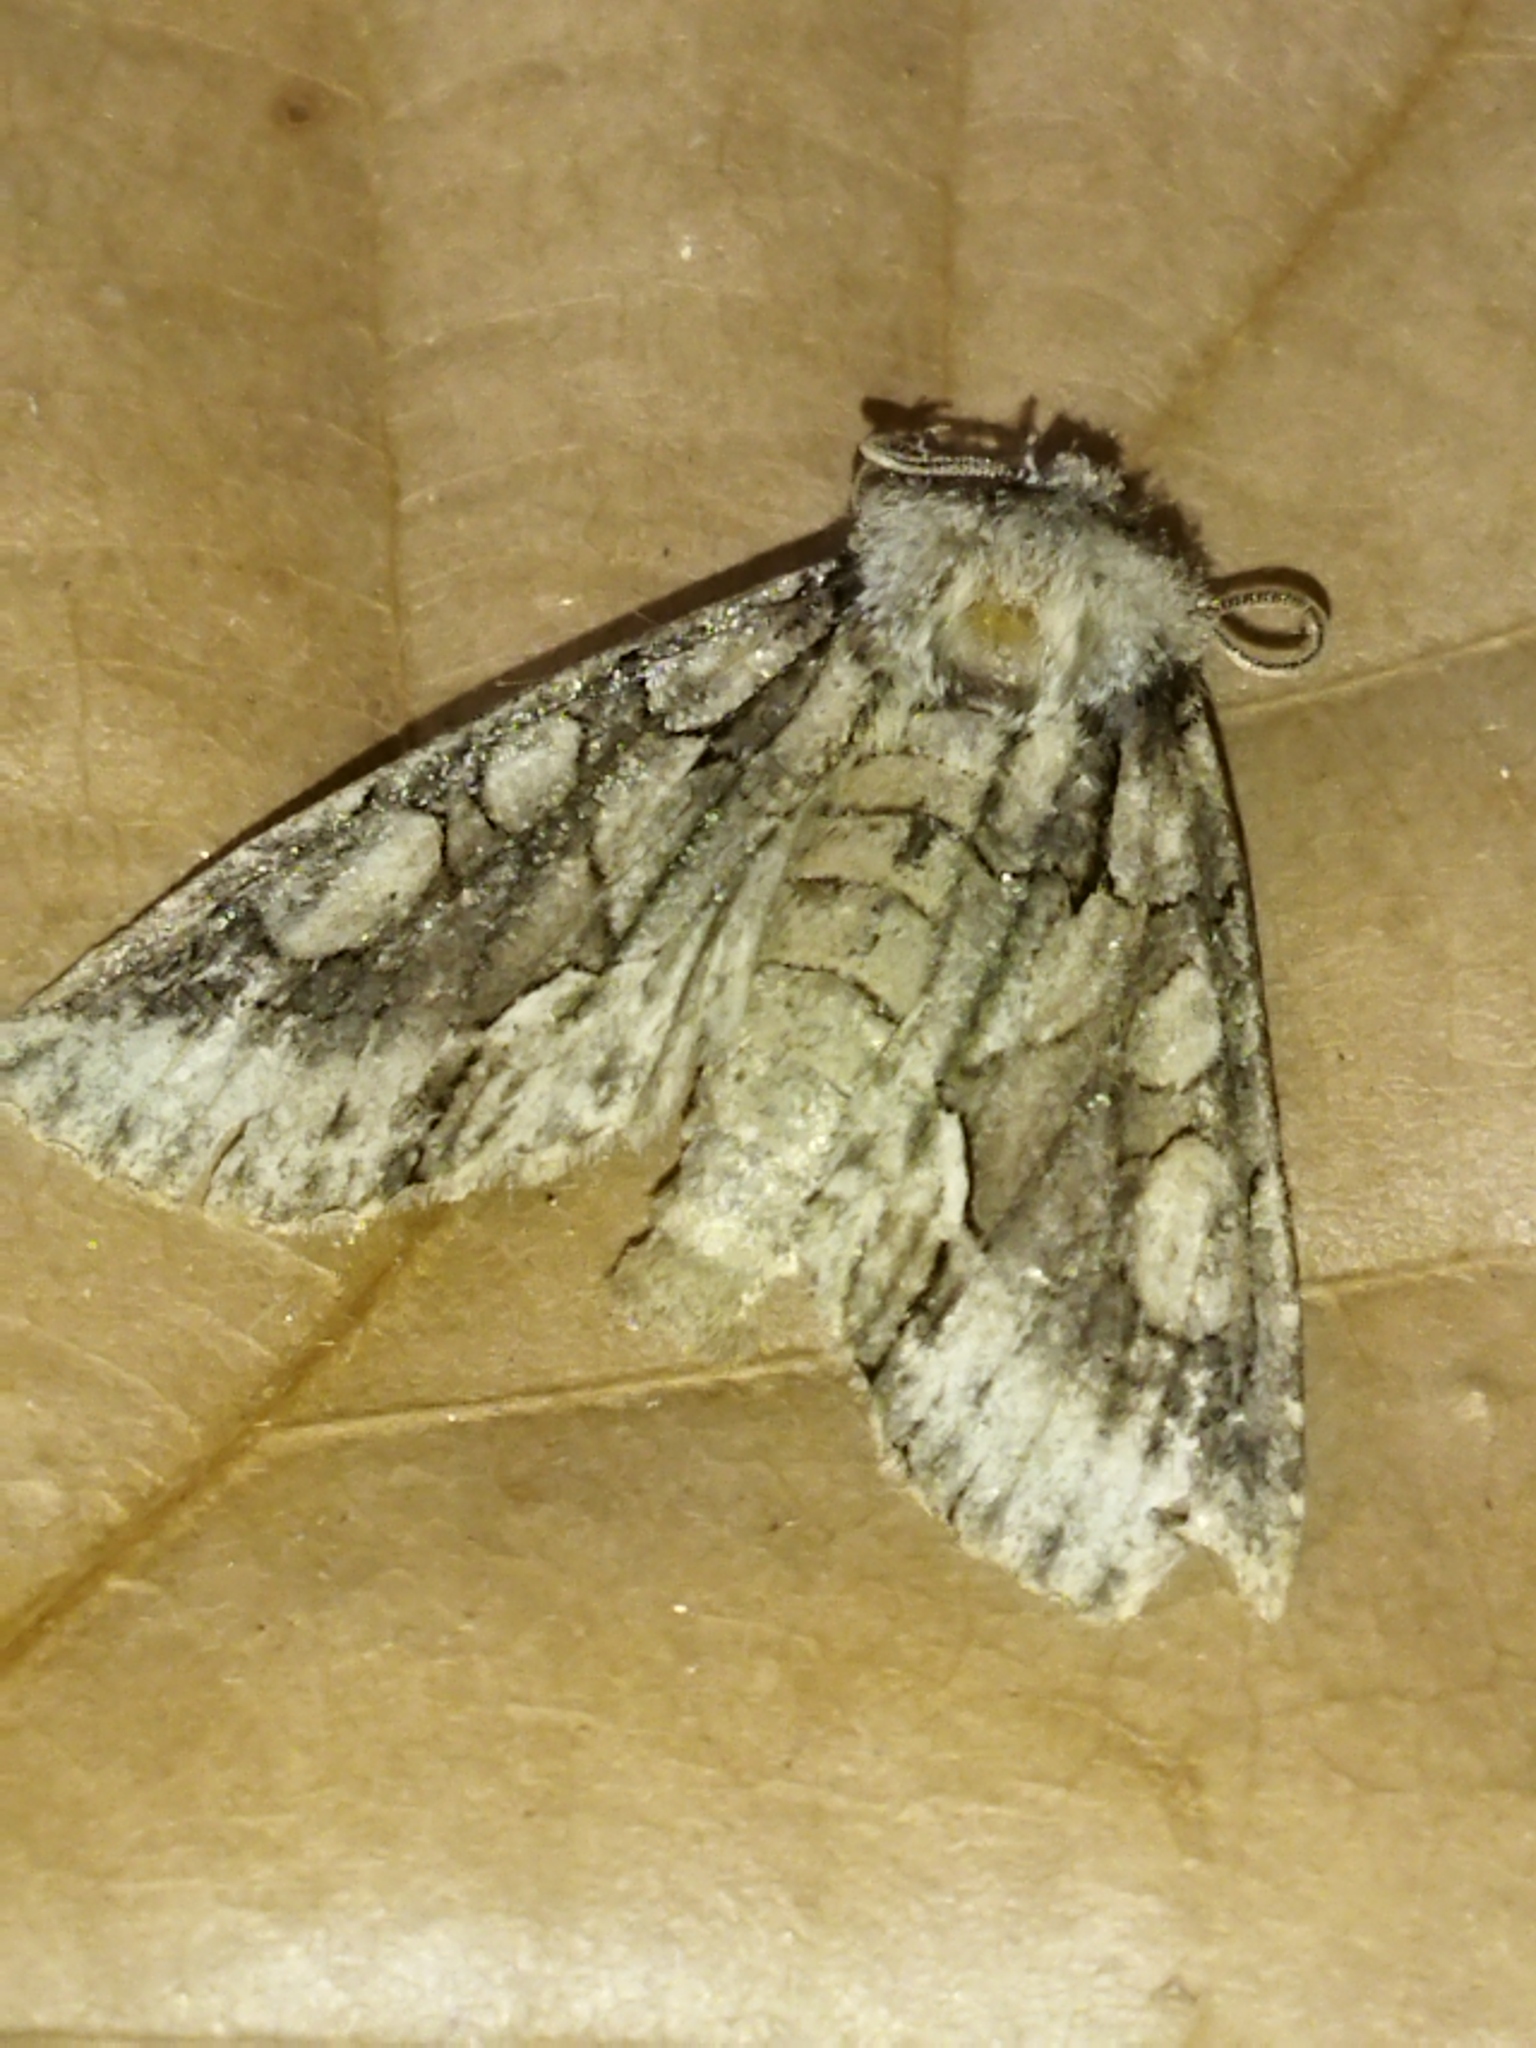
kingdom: Animalia
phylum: Arthropoda
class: Insecta
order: Lepidoptera
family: Noctuidae
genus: Allophyes
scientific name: Allophyes oxyacanthae
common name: Green-brindled crescent
